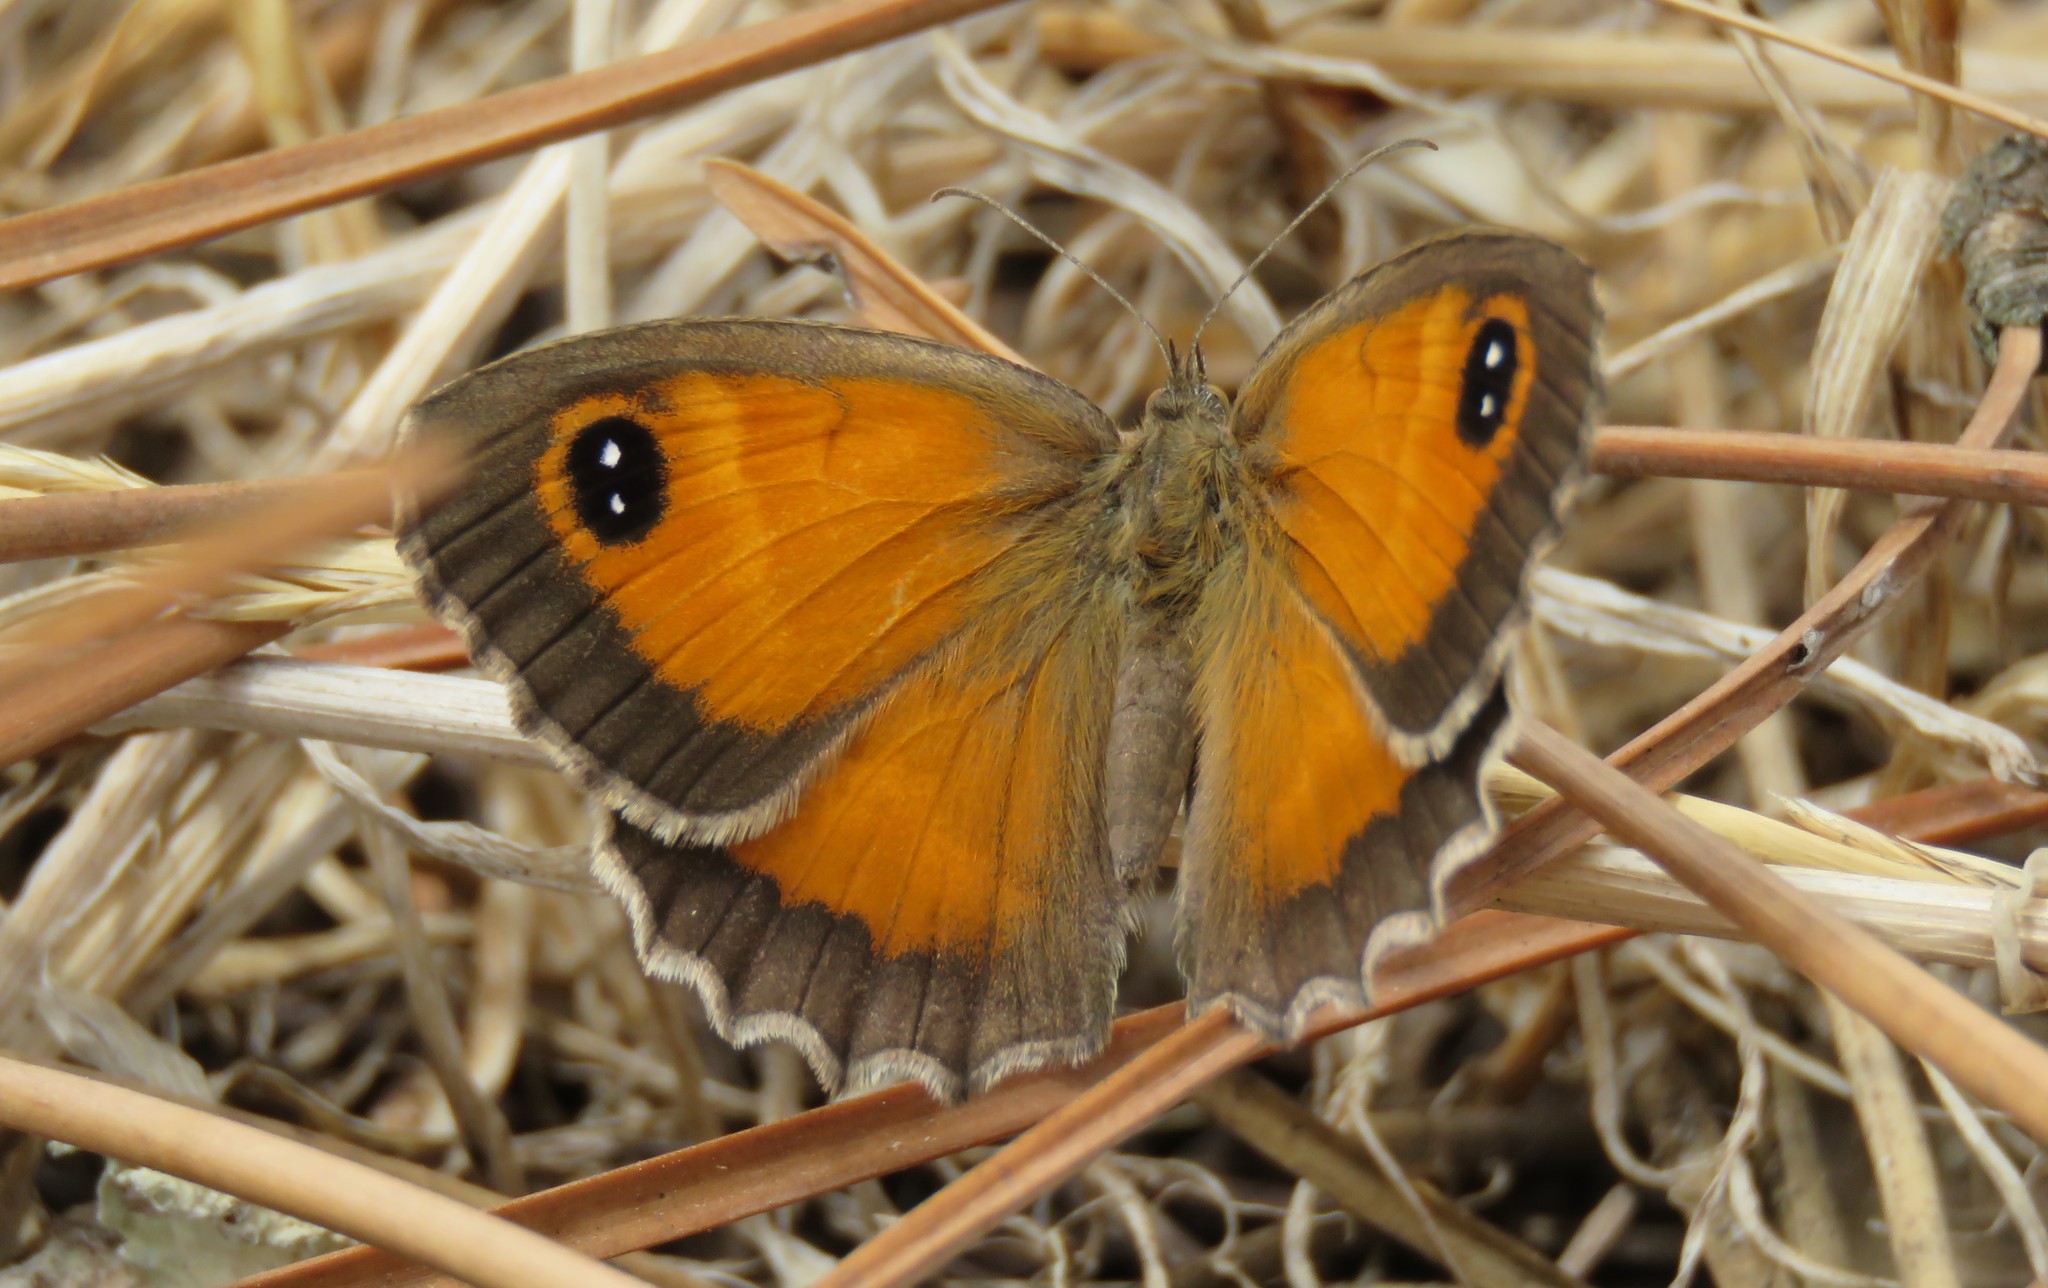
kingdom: Animalia
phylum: Arthropoda
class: Insecta
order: Lepidoptera
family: Nymphalidae
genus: Pyronia
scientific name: Pyronia cecilia
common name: Southern gatekeeper
